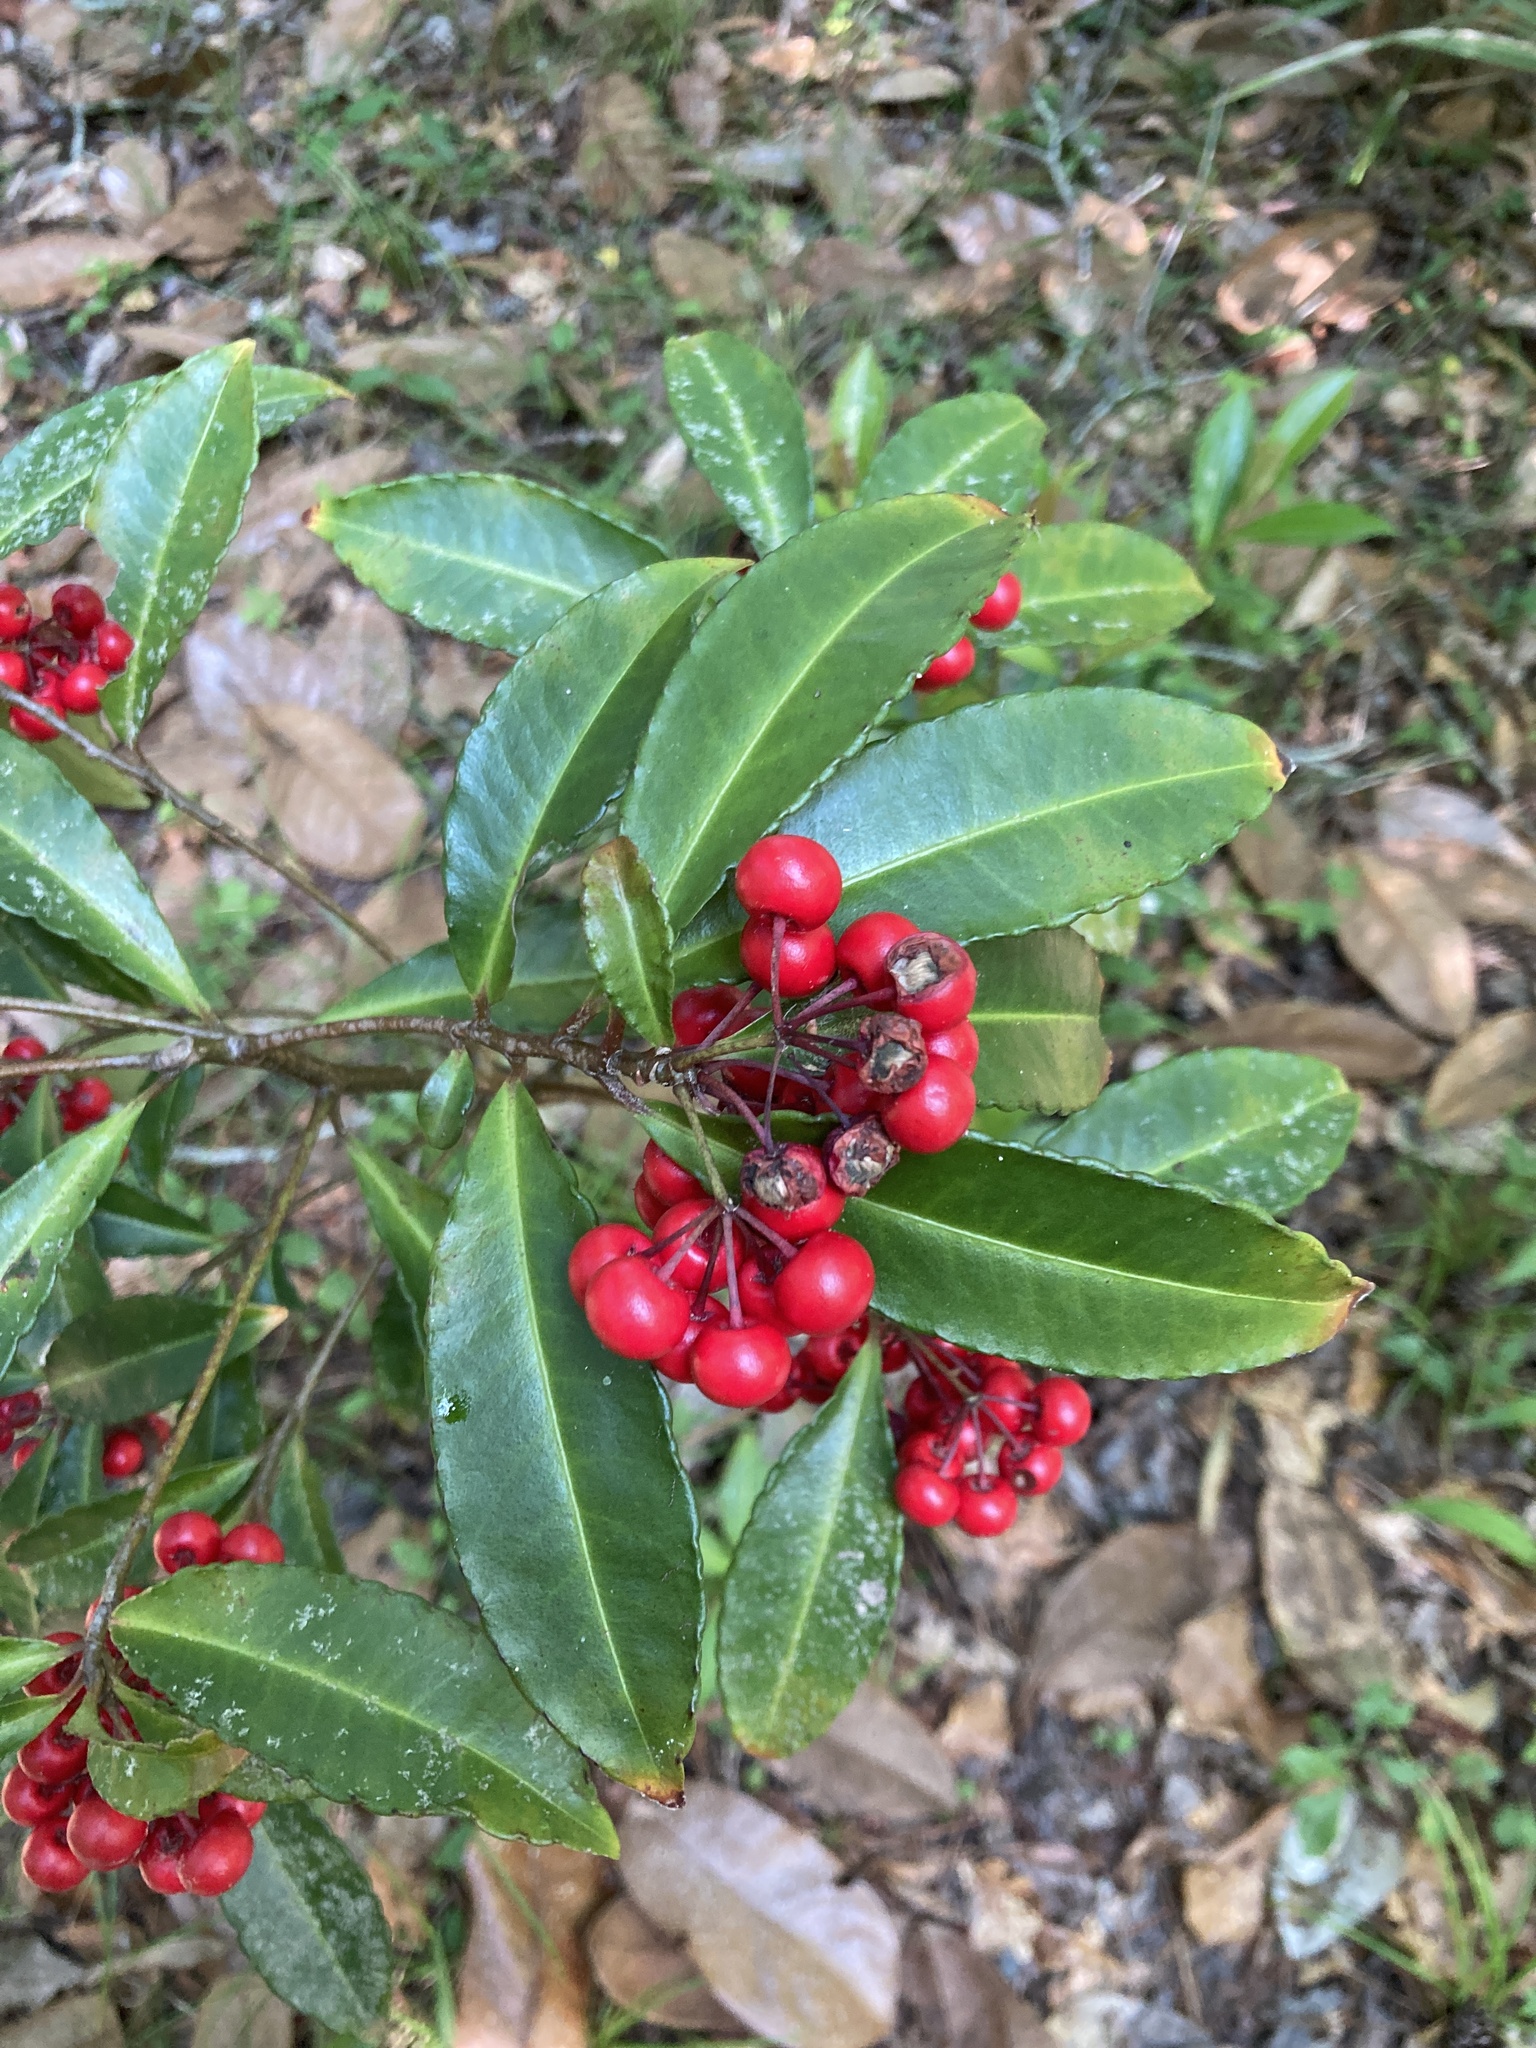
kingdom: Plantae
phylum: Tracheophyta
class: Magnoliopsida
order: Ericales
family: Primulaceae
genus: Ardisia
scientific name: Ardisia crenata
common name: Hen's eyes
